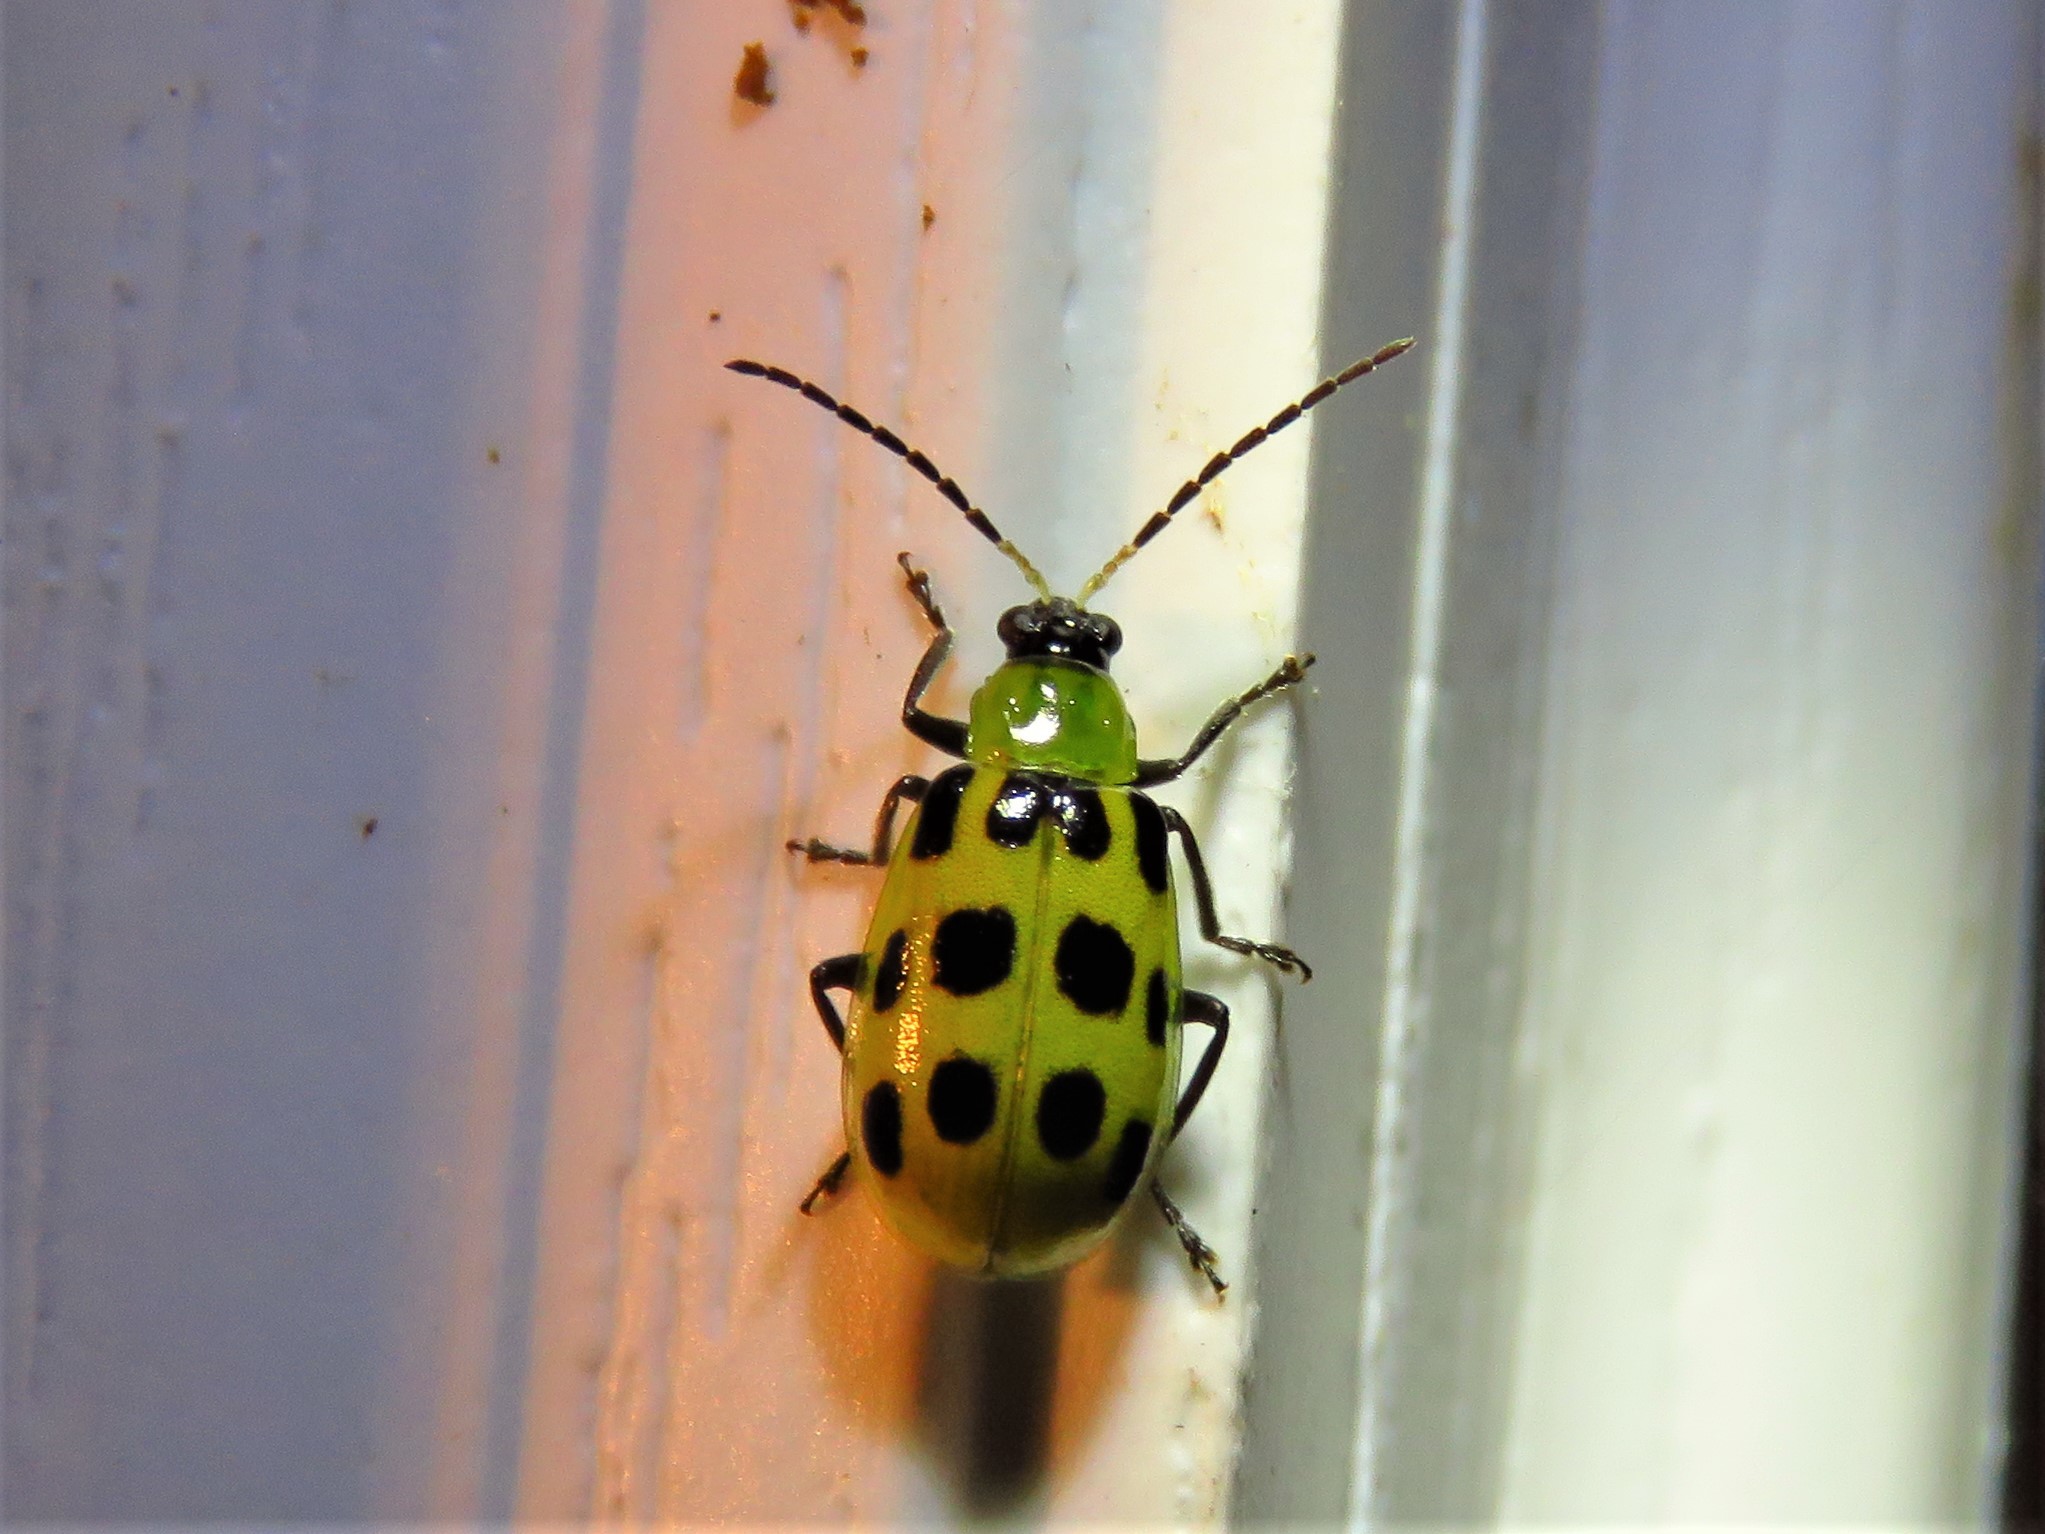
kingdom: Animalia
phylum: Arthropoda
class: Insecta
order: Coleoptera
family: Chrysomelidae
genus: Diabrotica
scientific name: Diabrotica undecimpunctata
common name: Spotted cucumber beetle
